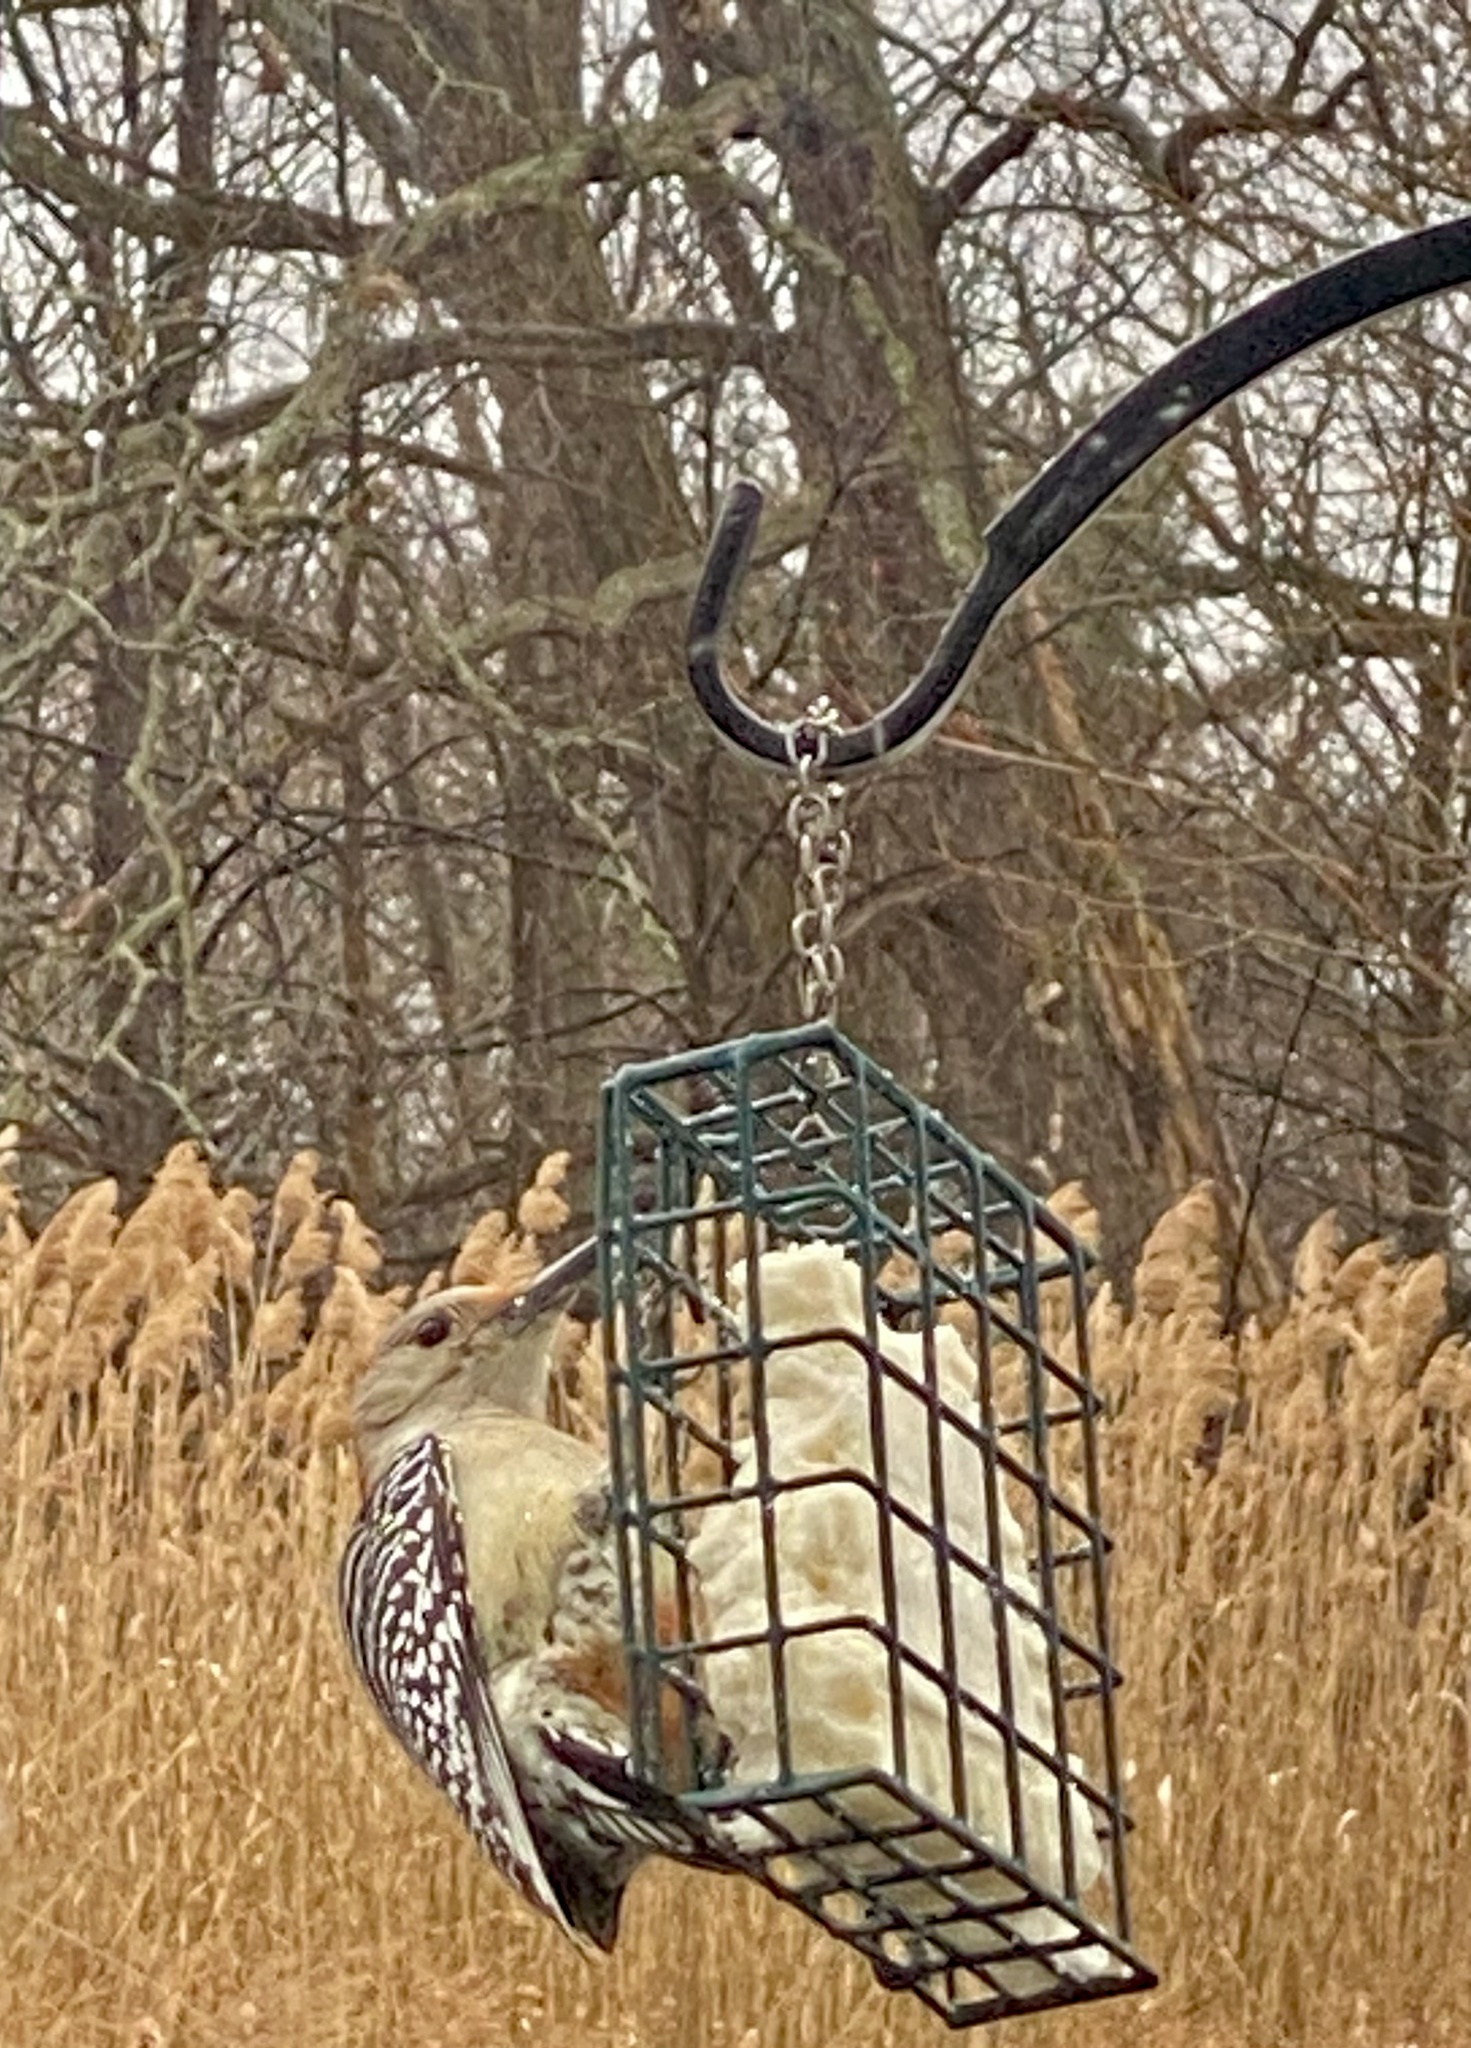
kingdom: Animalia
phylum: Chordata
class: Aves
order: Piciformes
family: Picidae
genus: Melanerpes
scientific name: Melanerpes carolinus
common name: Red-bellied woodpecker
